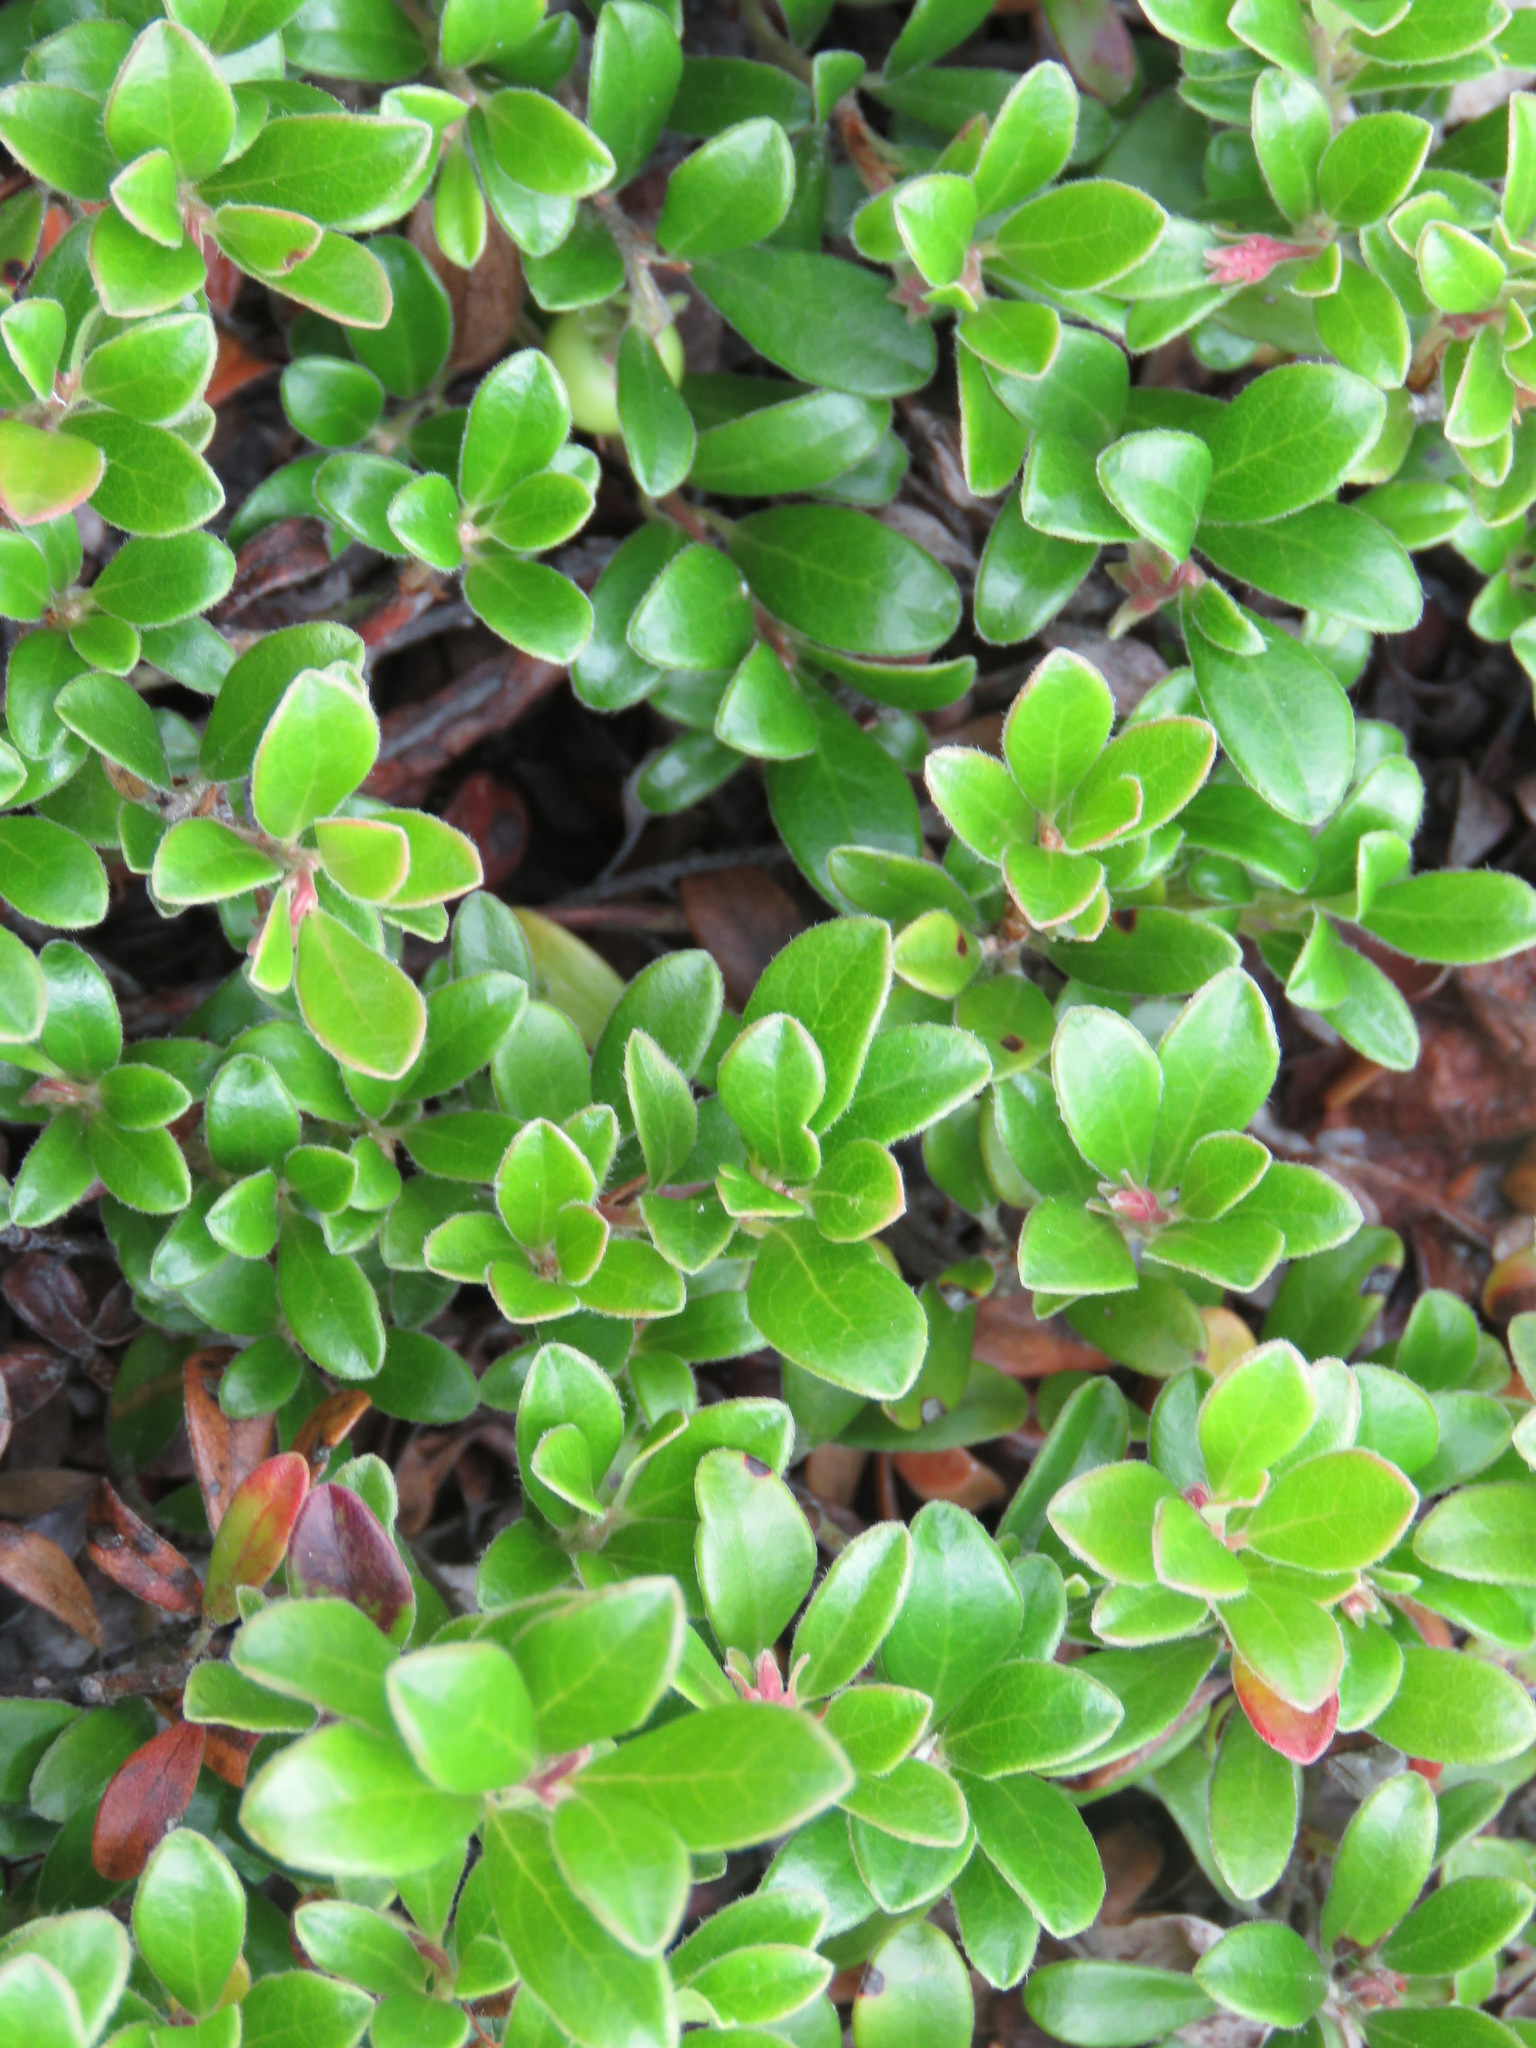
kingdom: Plantae
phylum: Tracheophyta
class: Magnoliopsida
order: Ericales
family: Ericaceae
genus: Arctostaphylos
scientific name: Arctostaphylos uva-ursi
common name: Bearberry
